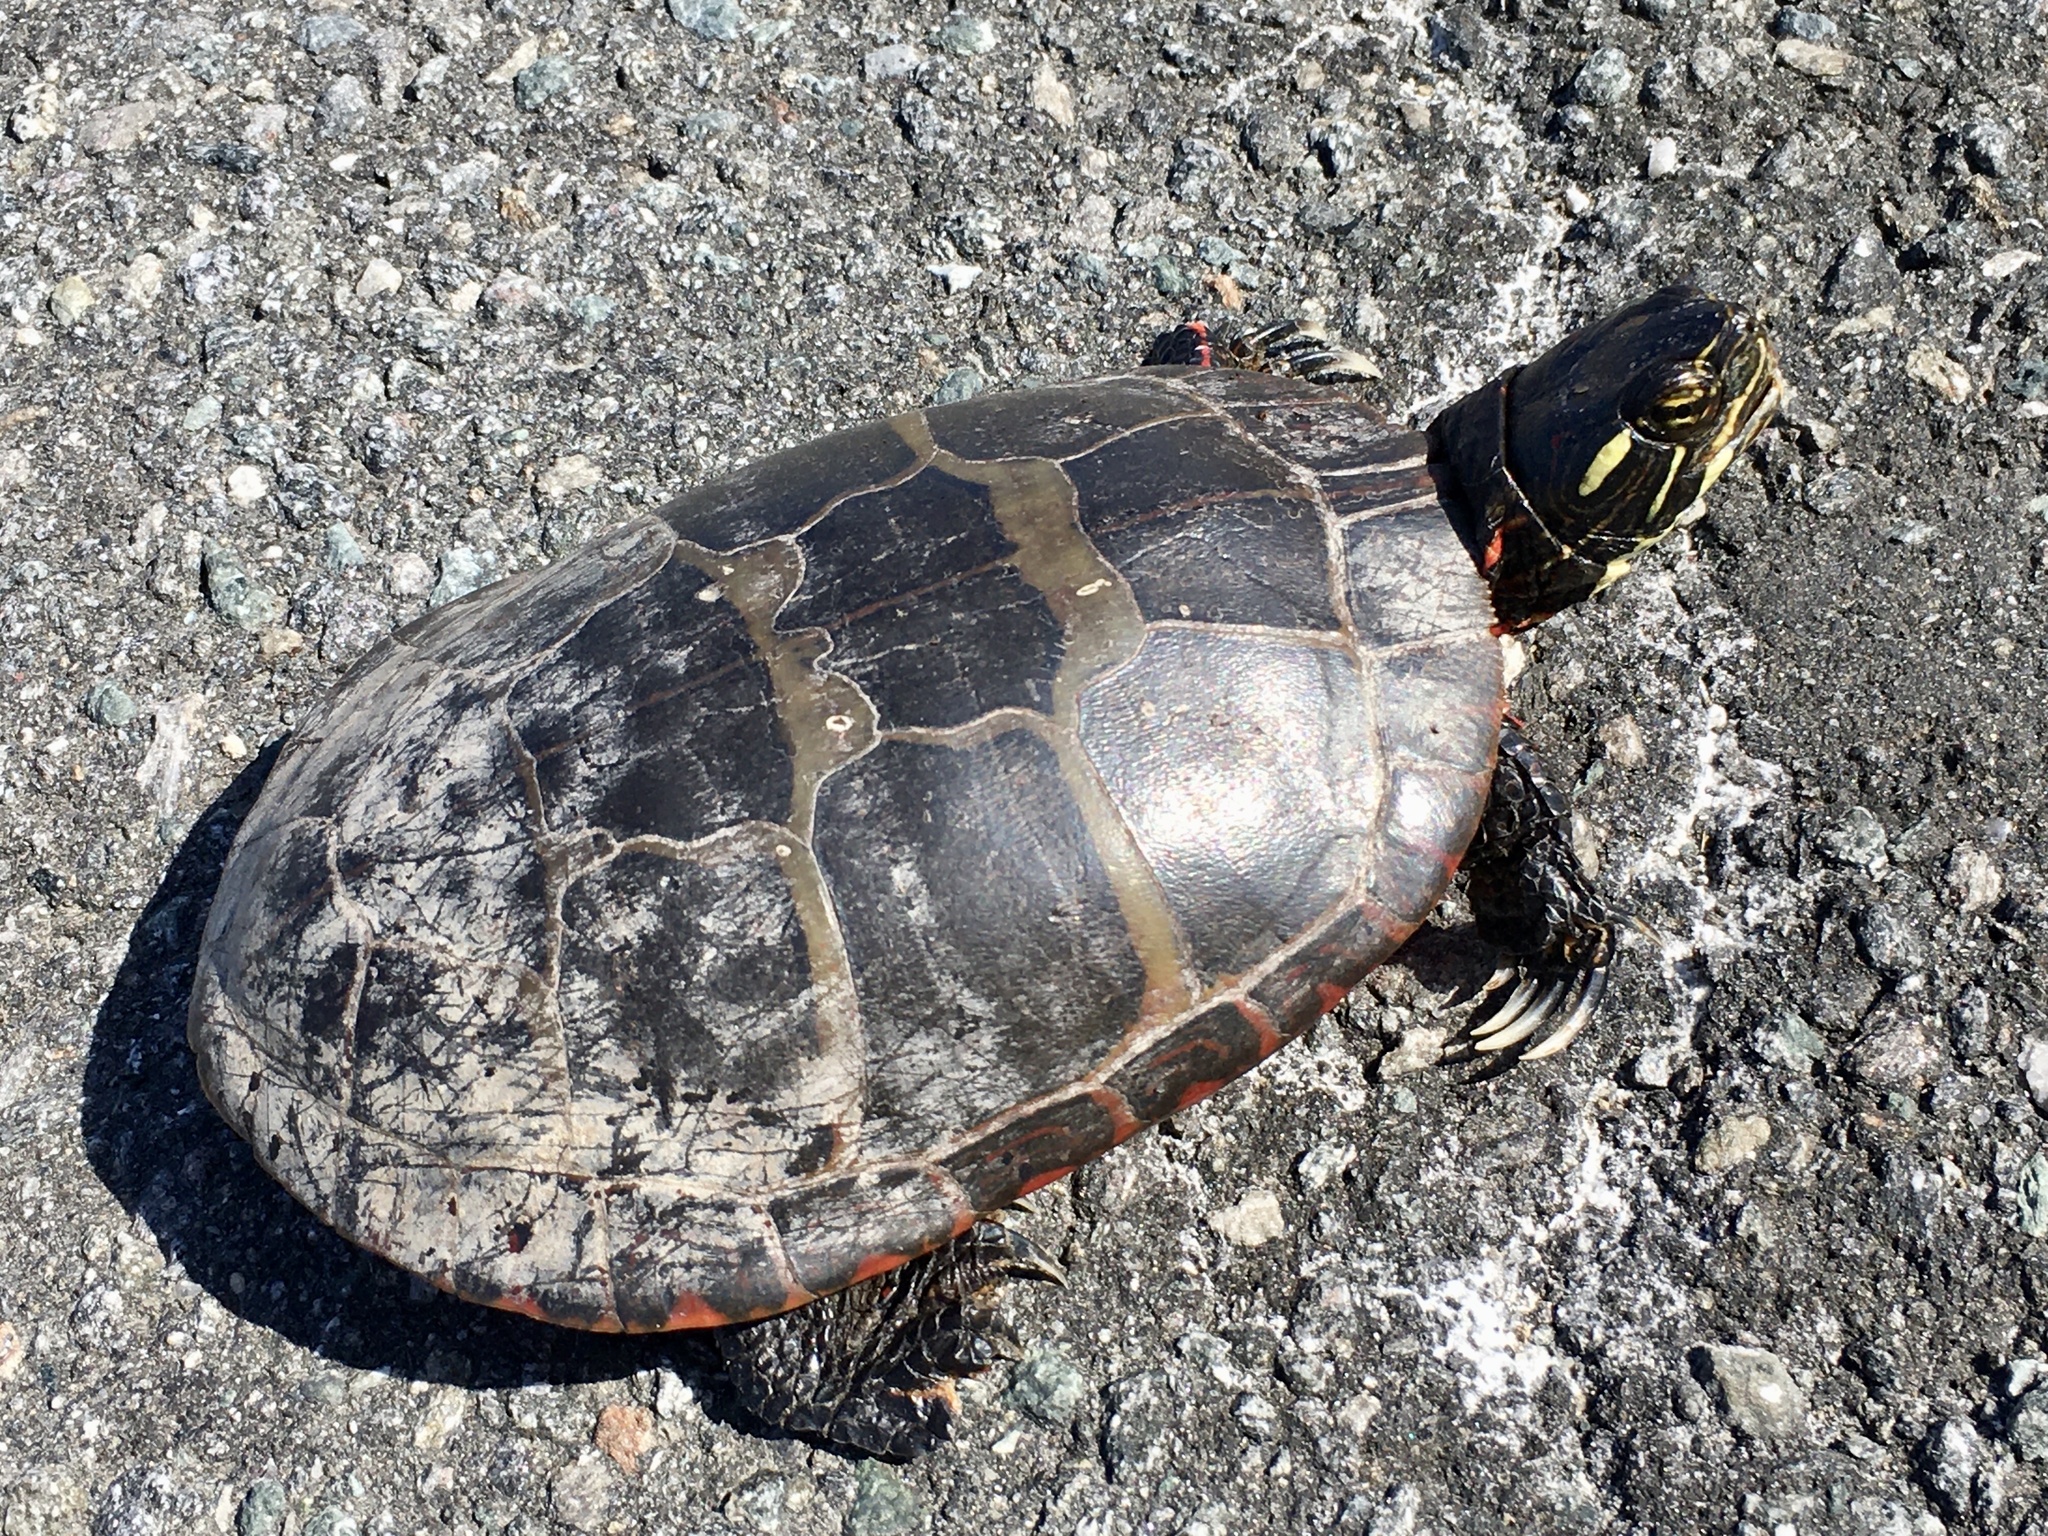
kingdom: Animalia
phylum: Chordata
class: Testudines
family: Emydidae
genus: Chrysemys
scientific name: Chrysemys picta
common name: Painted turtle
